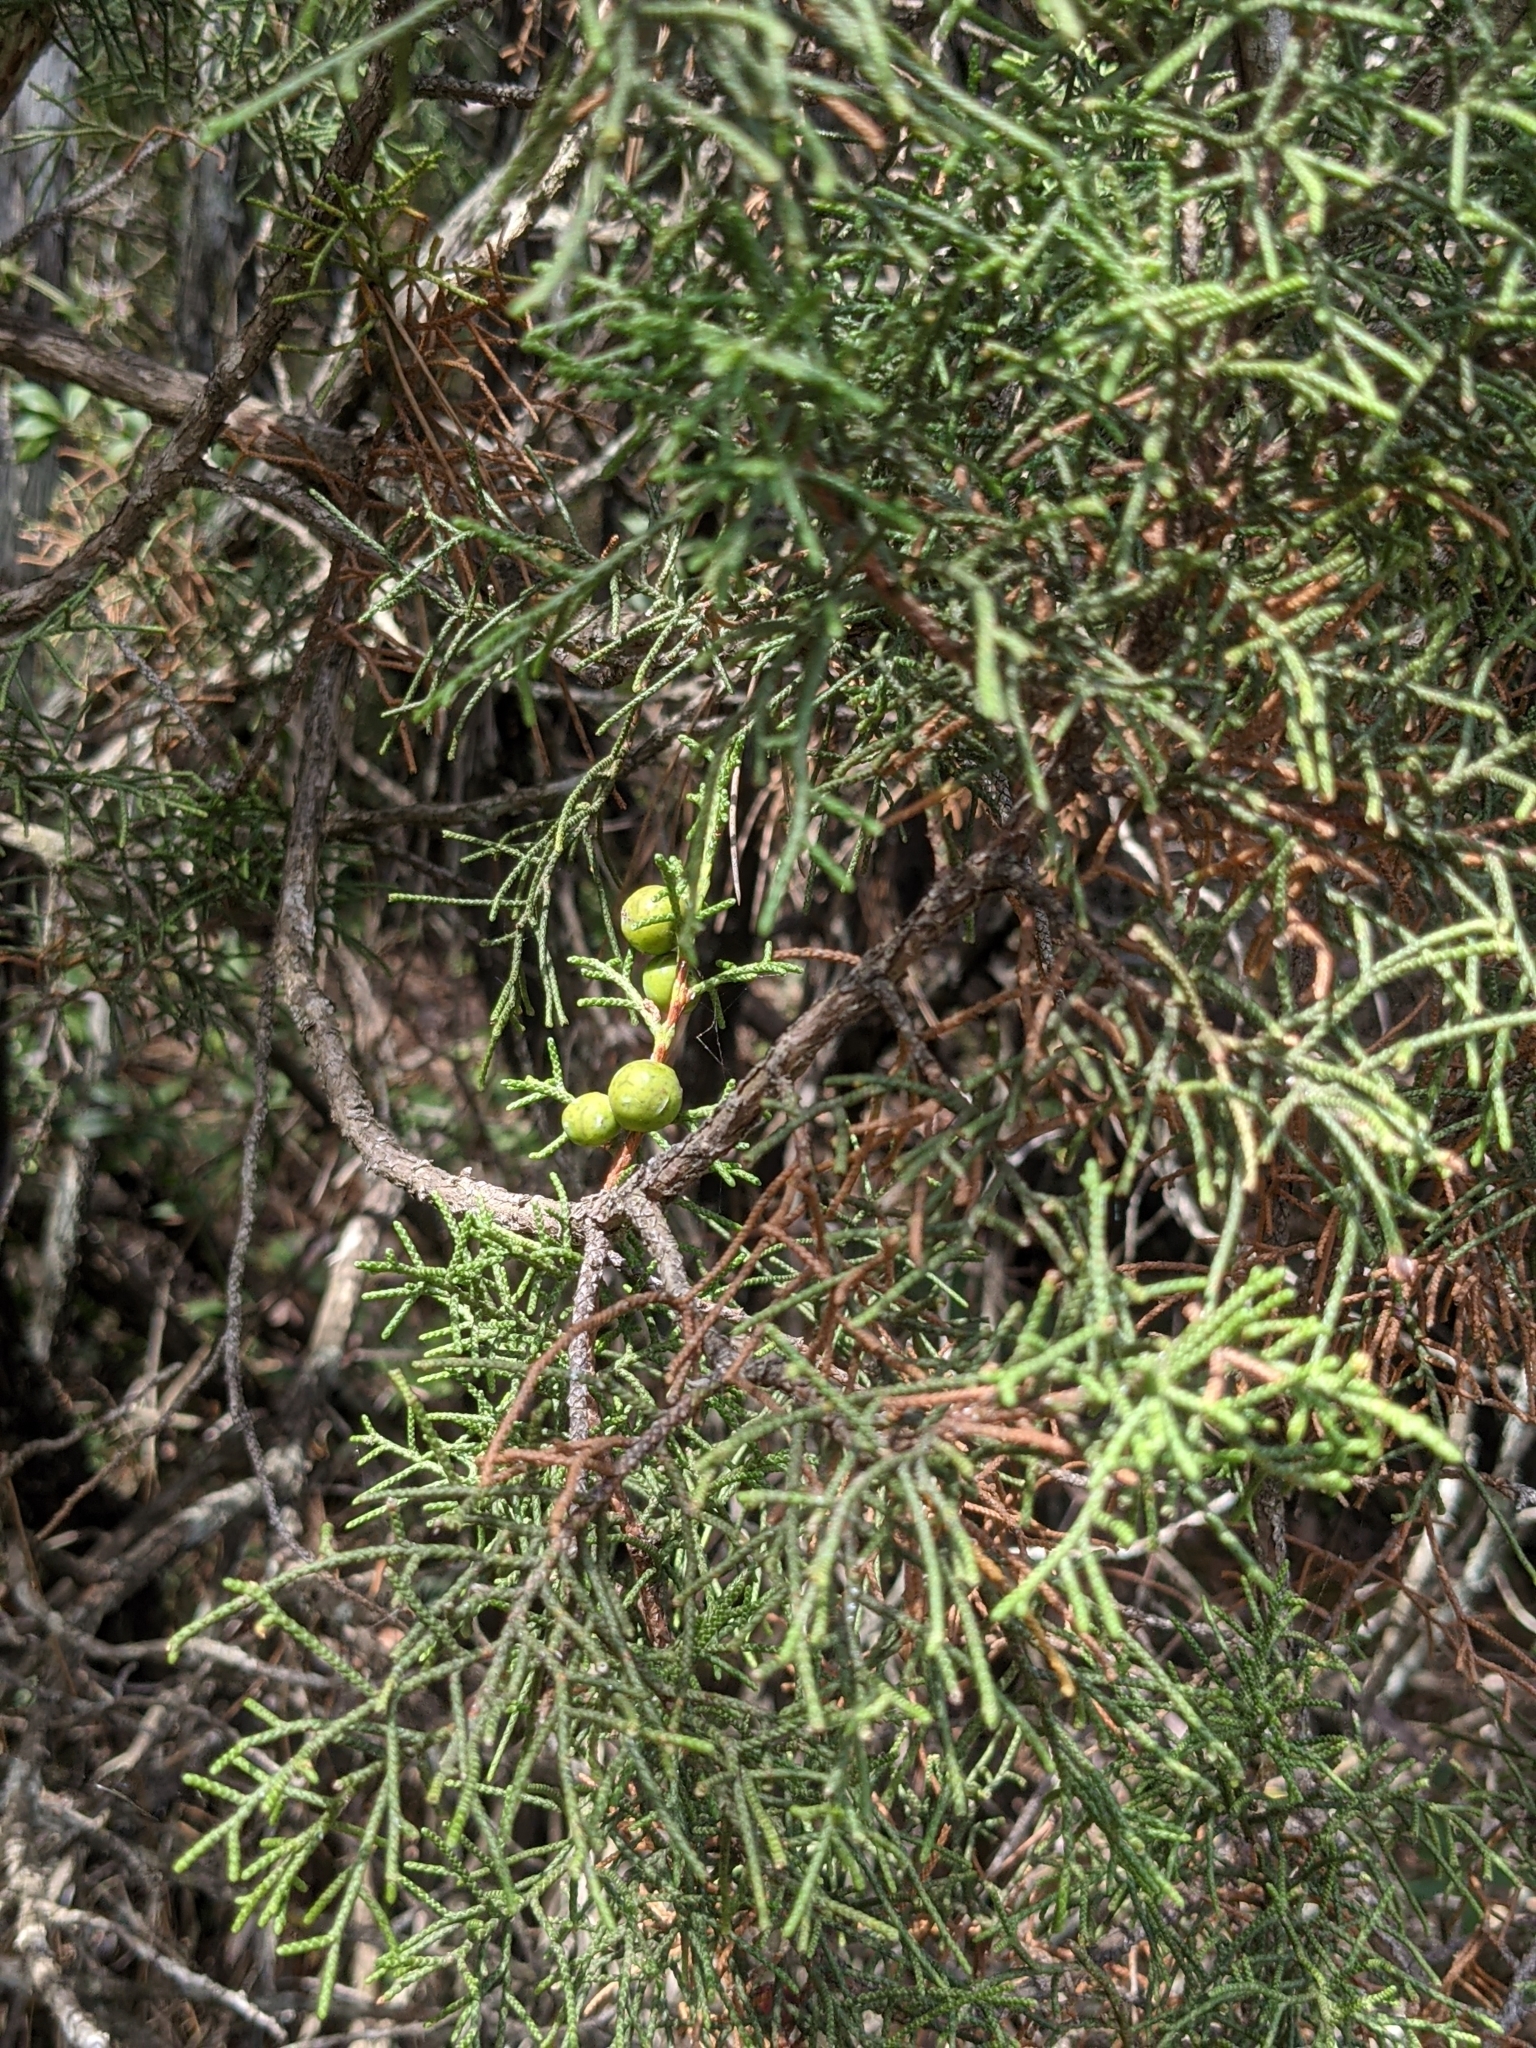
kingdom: Plantae
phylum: Tracheophyta
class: Pinopsida
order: Pinales
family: Cupressaceae
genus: Juniperus
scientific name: Juniperus phoenicea
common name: Phoenician juniper
